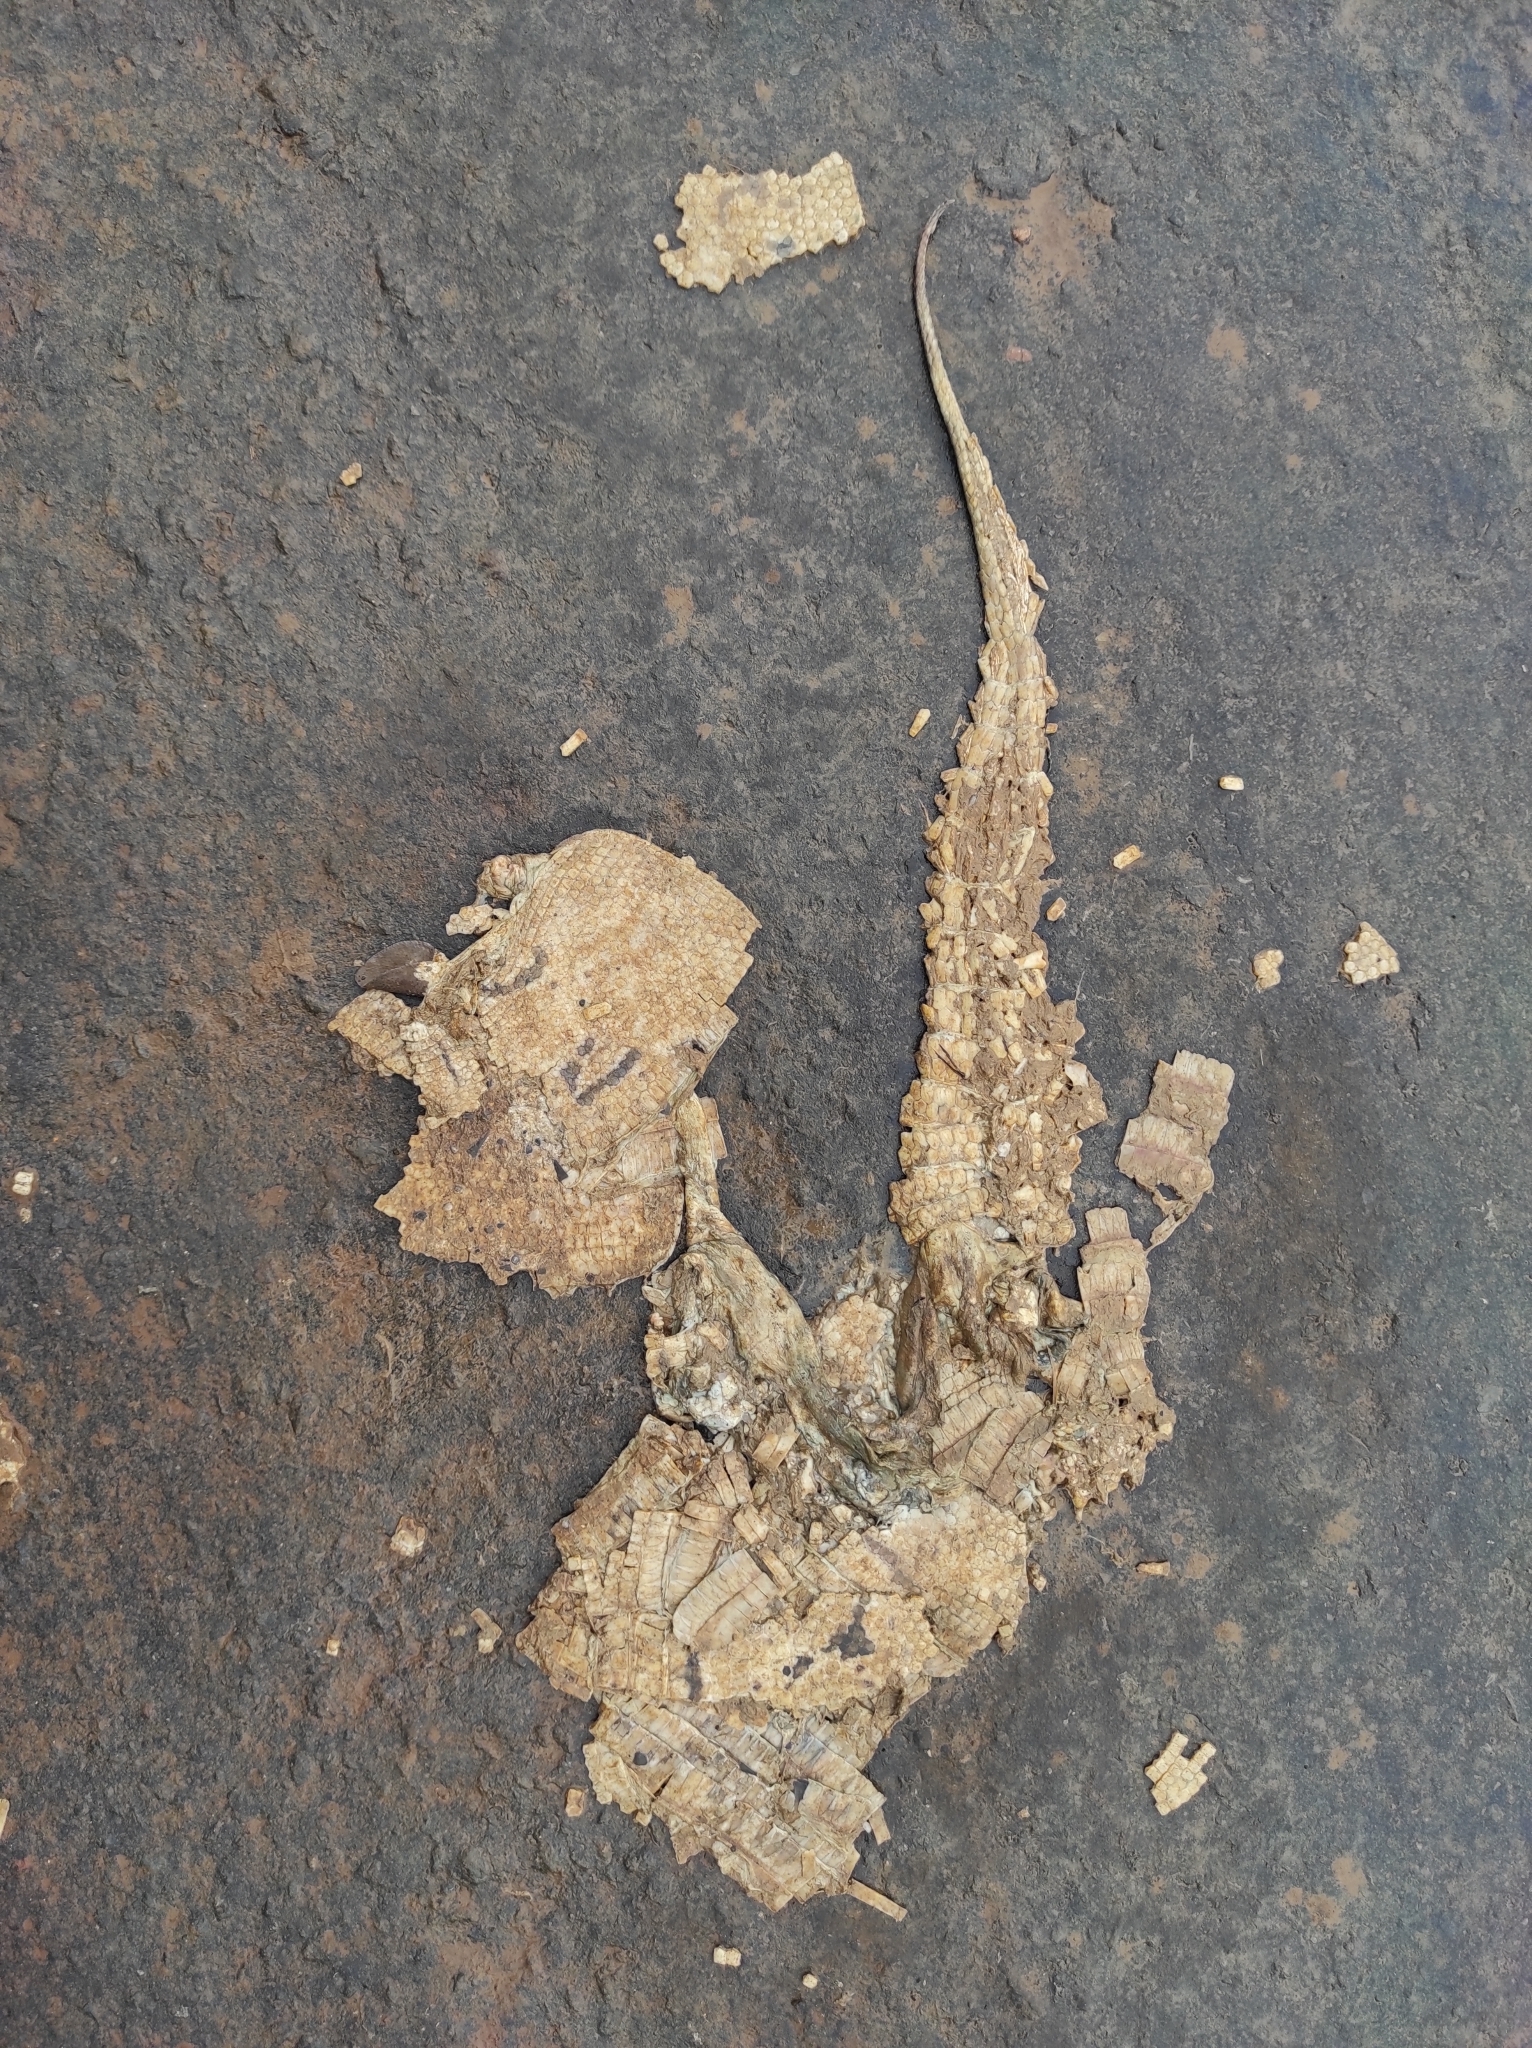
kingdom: Animalia
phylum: Chordata
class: Mammalia
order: Cingulata
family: Dasypodidae
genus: Dasypus
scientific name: Dasypus novemcinctus
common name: Nine-banded armadillo
